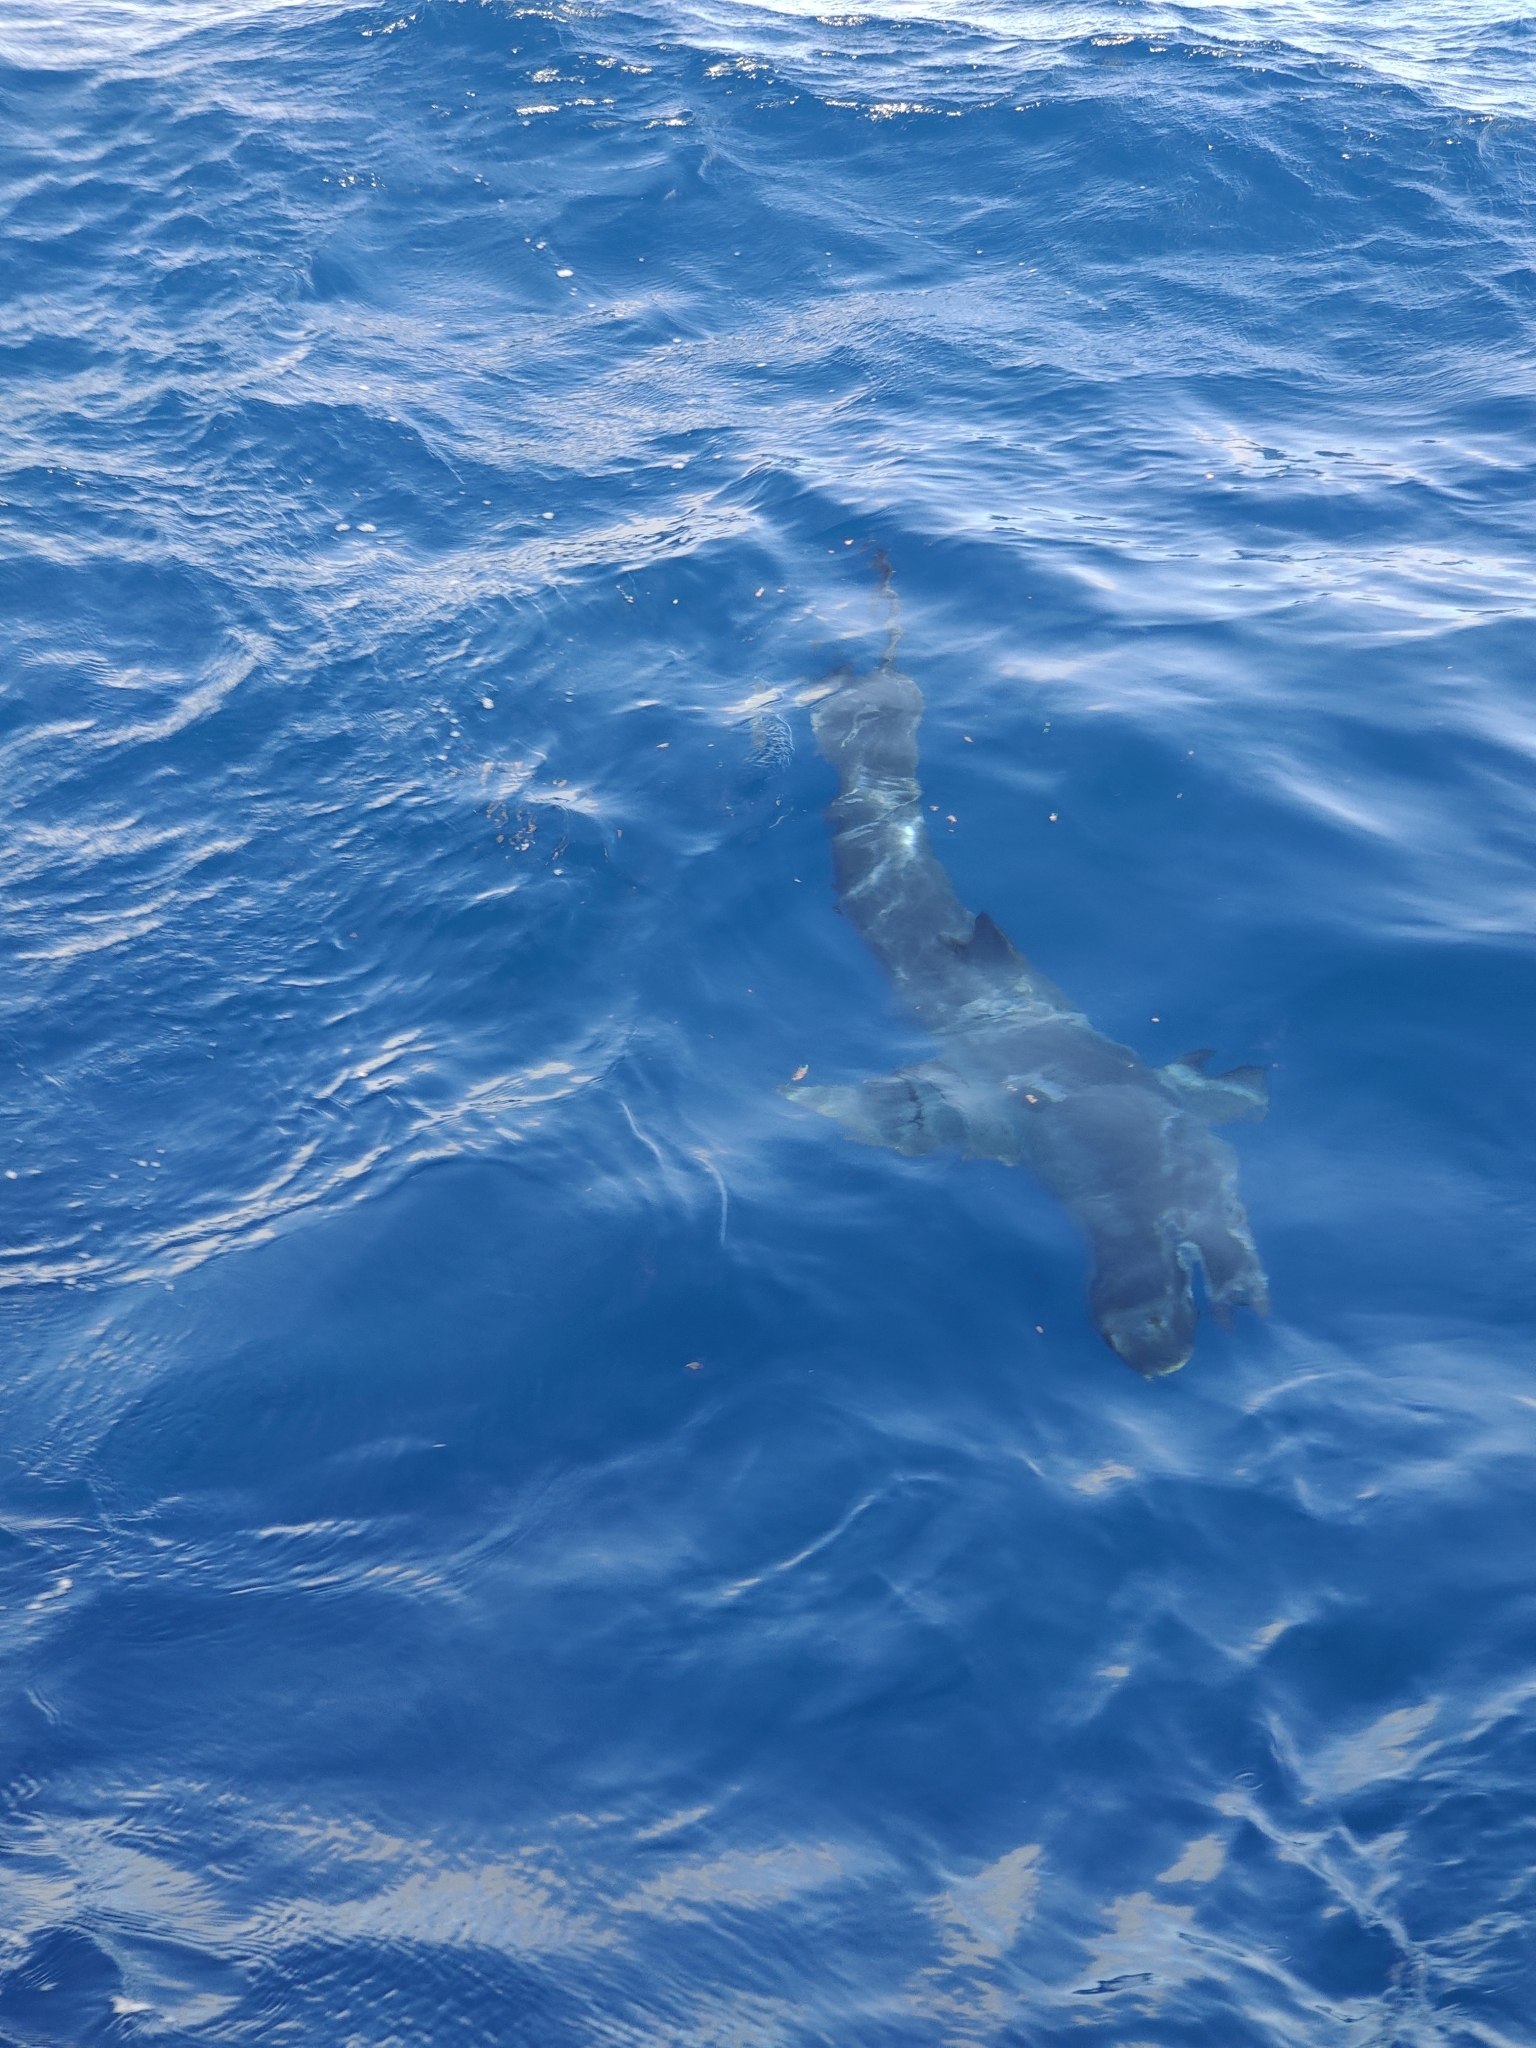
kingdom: Animalia
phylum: Chordata
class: Elasmobranchii
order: Lamniformes
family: Lamnidae
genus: Isurus
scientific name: Isurus oxyrinchus
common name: Shortfin mako
